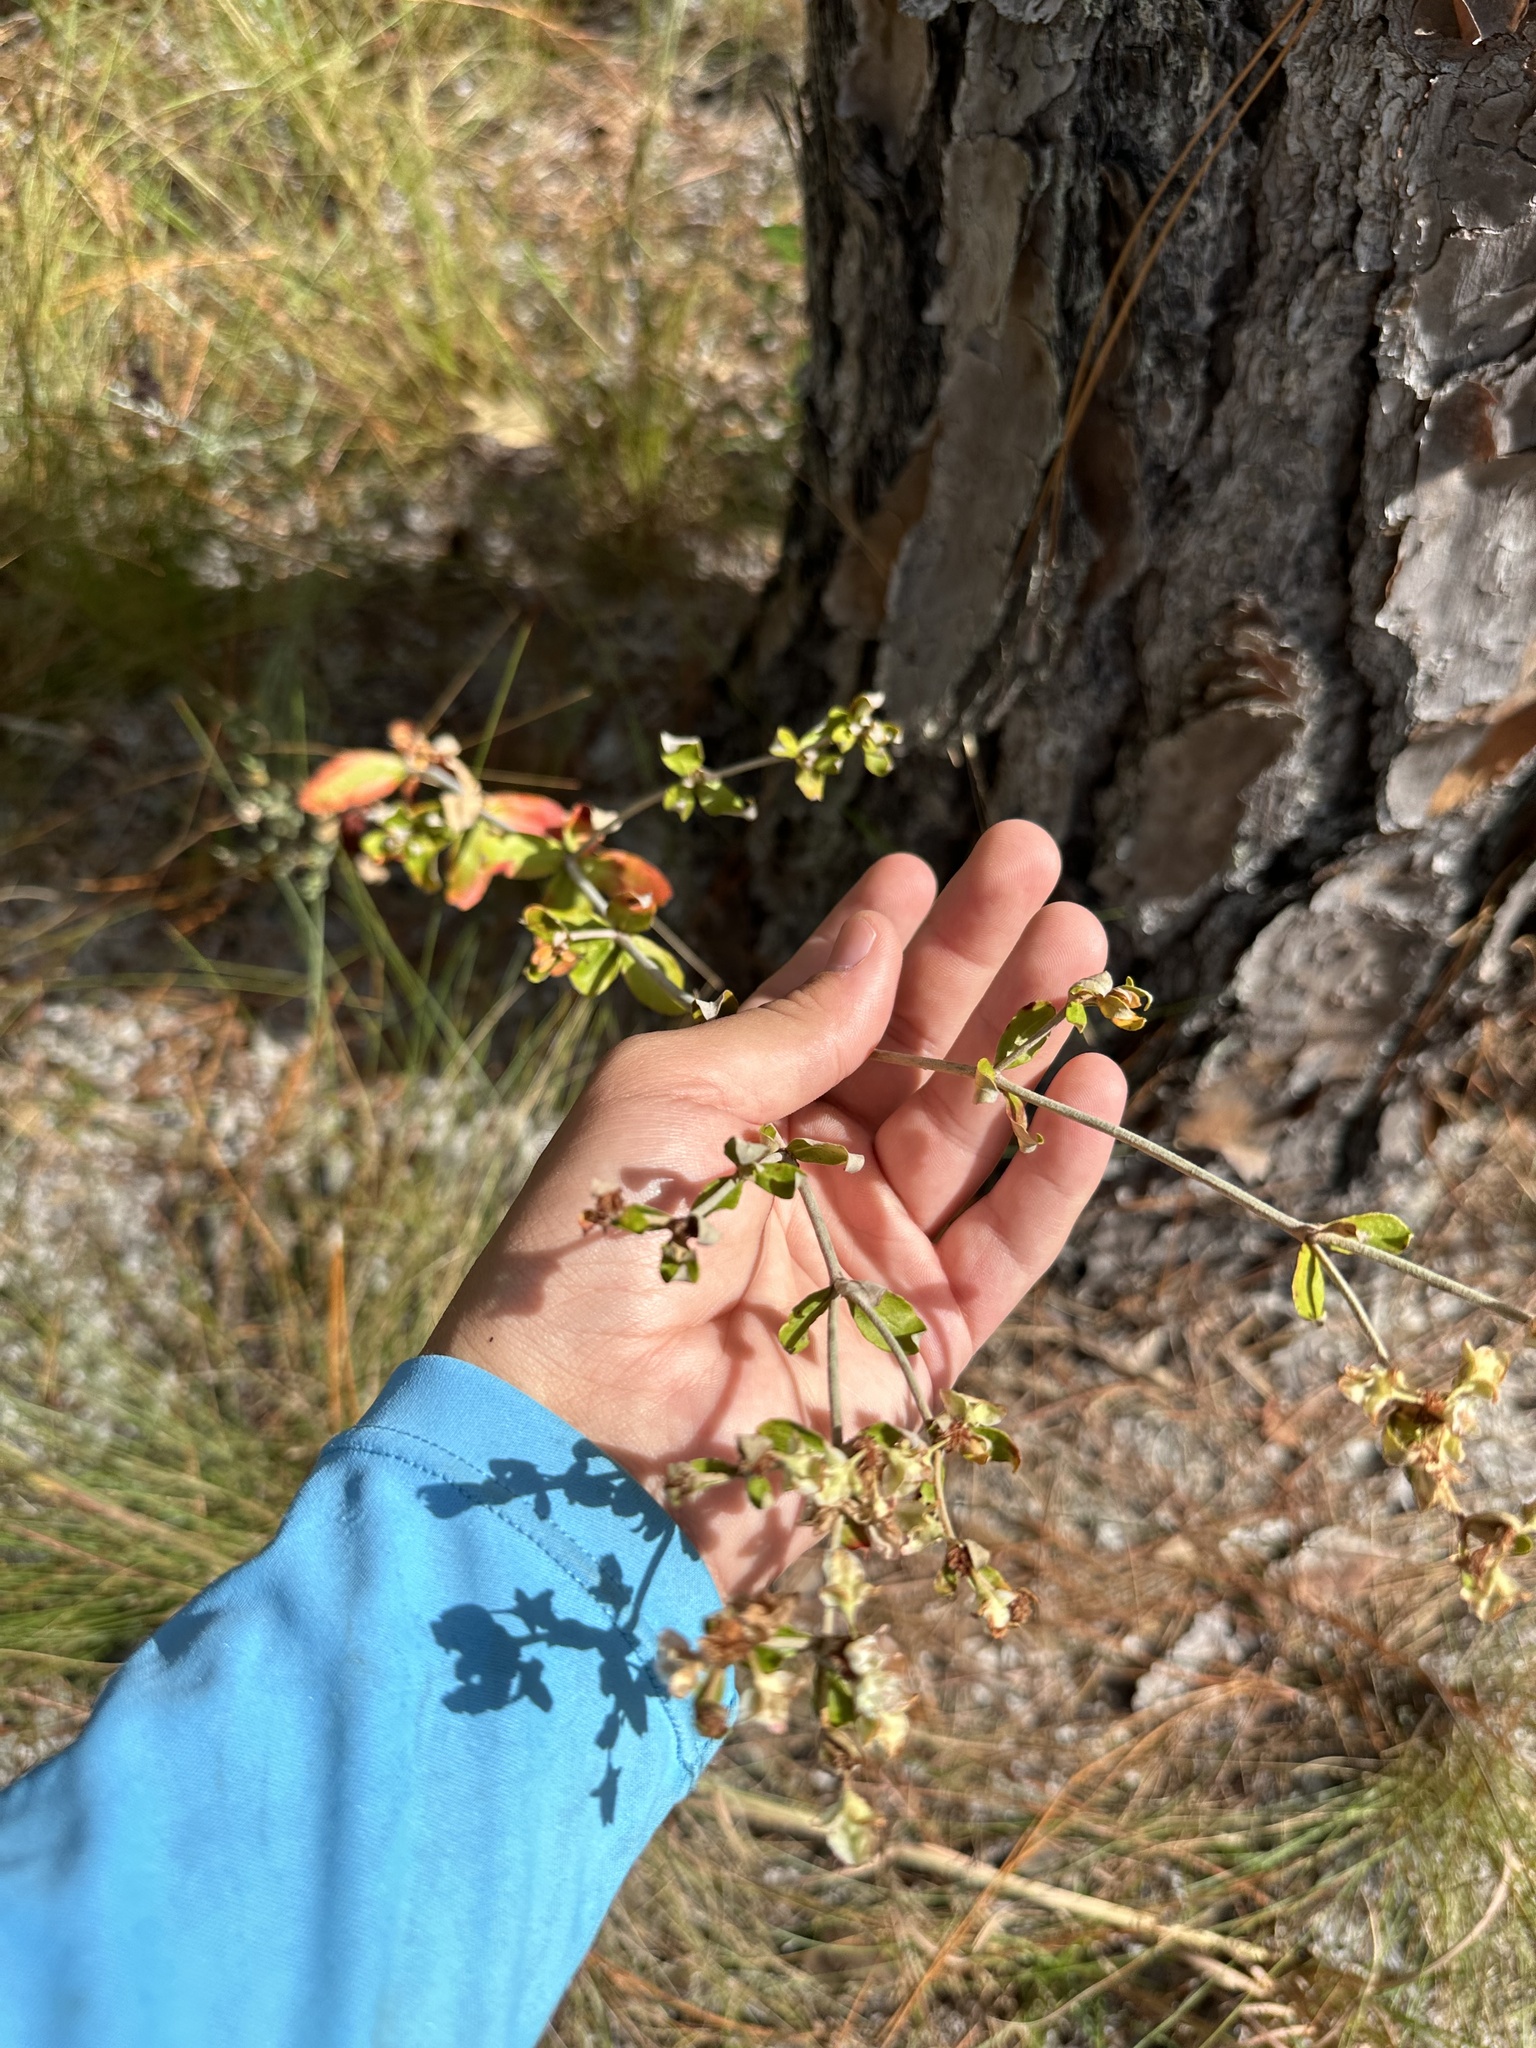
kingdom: Plantae
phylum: Tracheophyta
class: Magnoliopsida
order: Caryophyllales
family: Polygonaceae
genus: Eriogonum
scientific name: Eriogonum tomentosum
